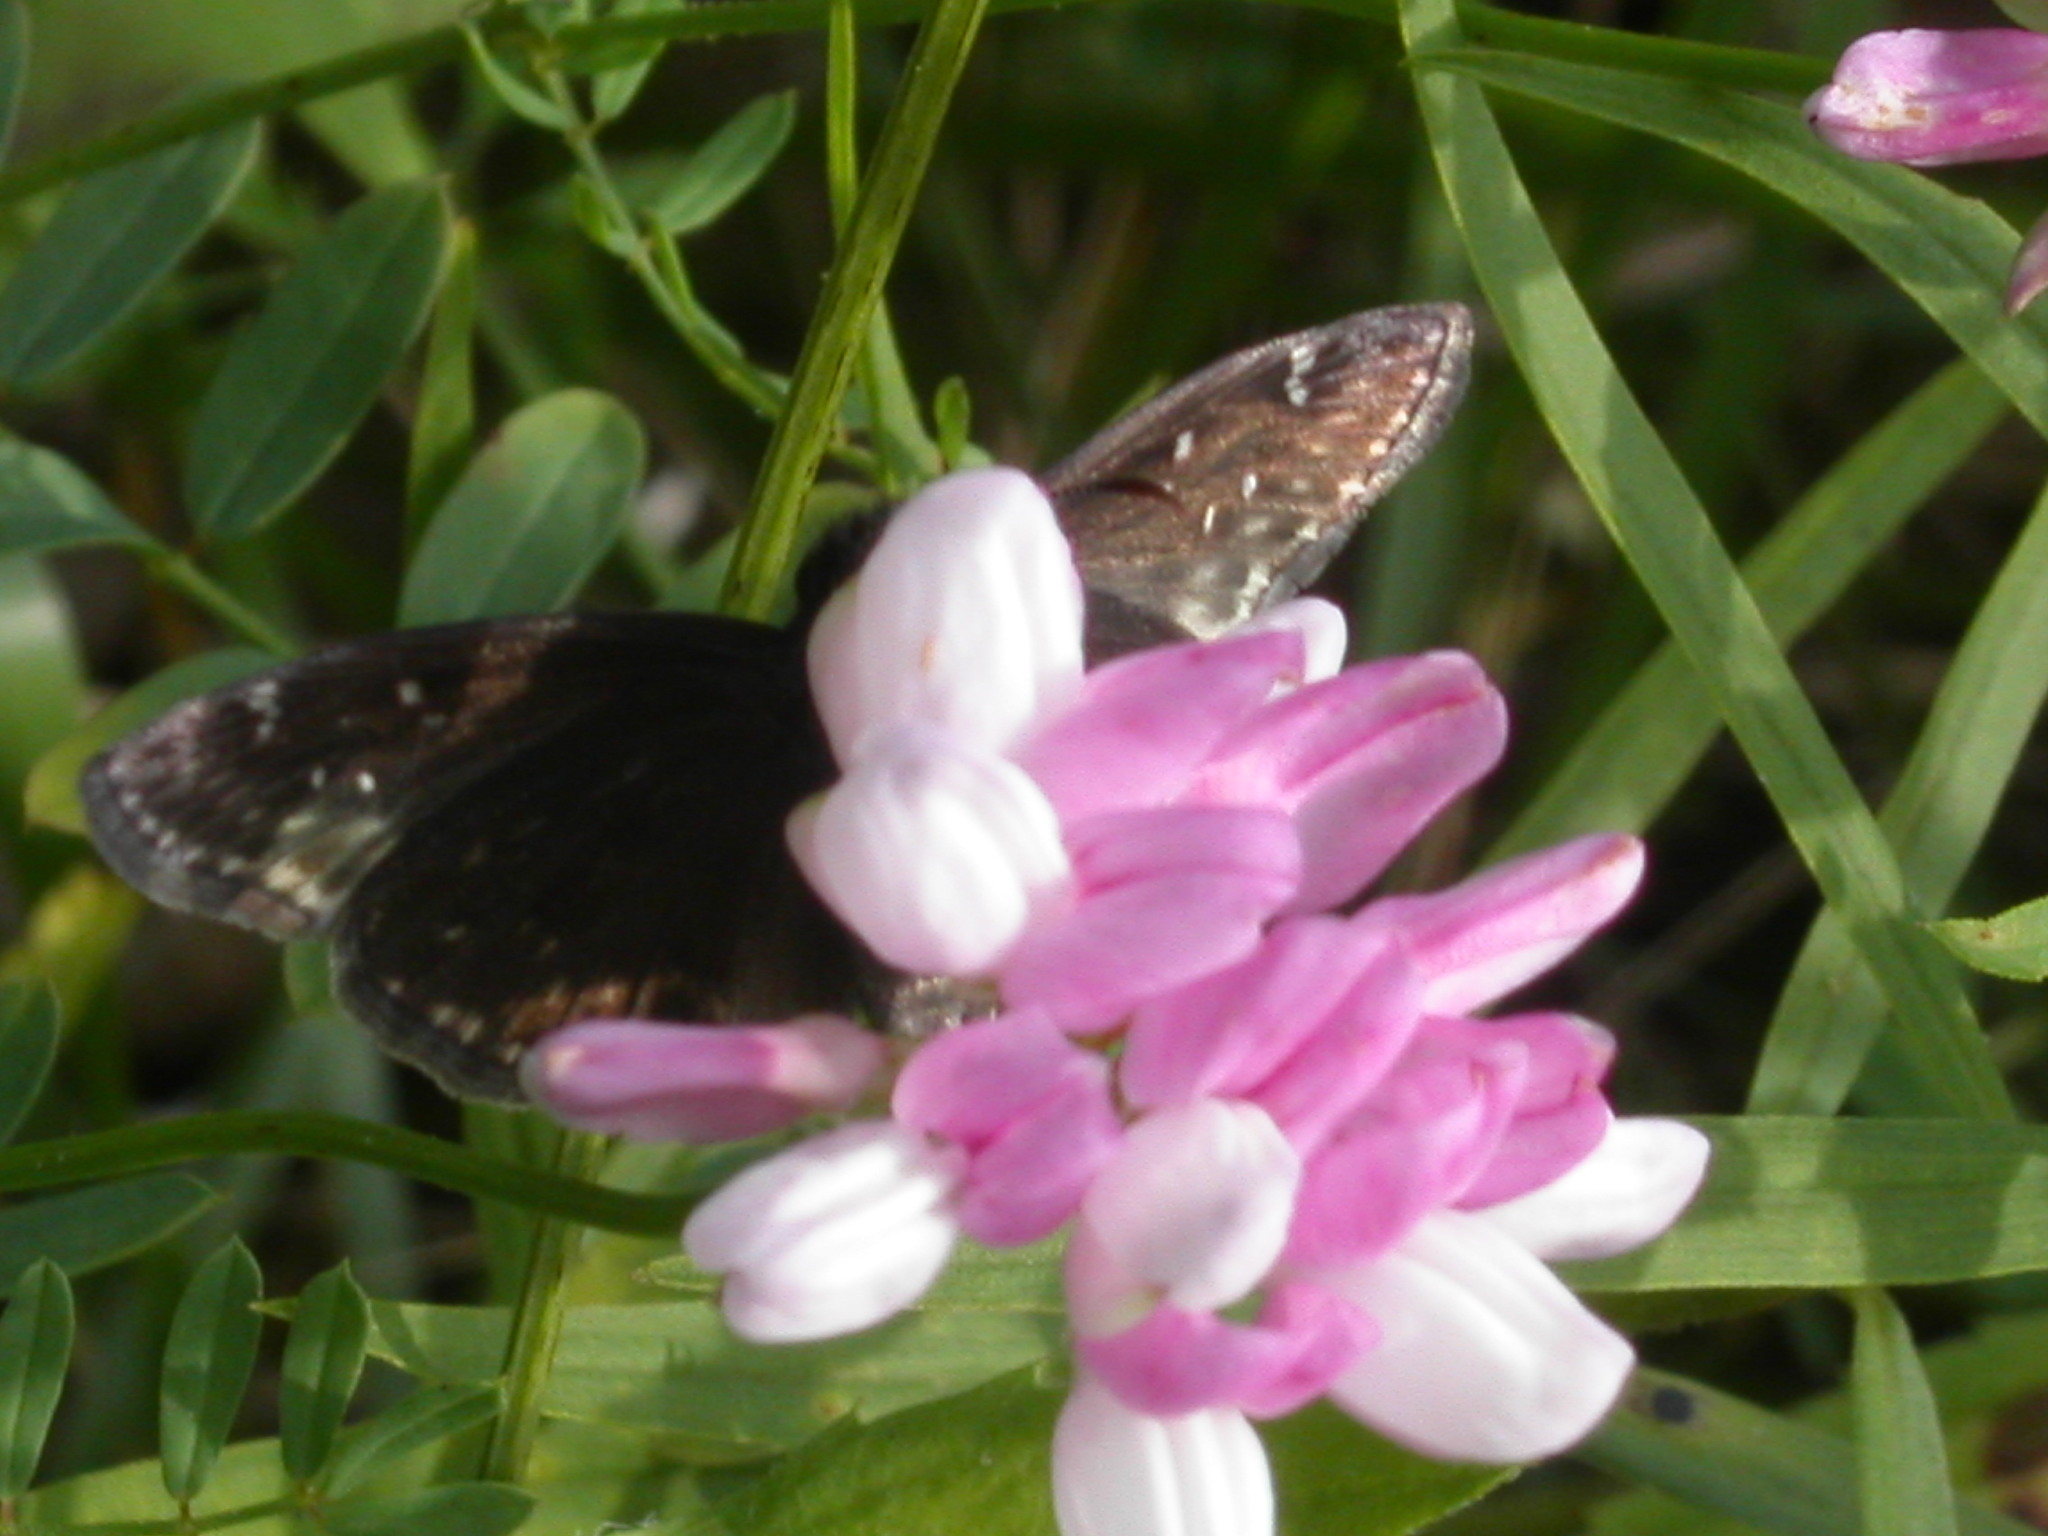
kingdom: Animalia
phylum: Arthropoda
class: Insecta
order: Lepidoptera
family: Hesperiidae
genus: Erynnis
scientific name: Erynnis horatius
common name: Horace's duskywing
